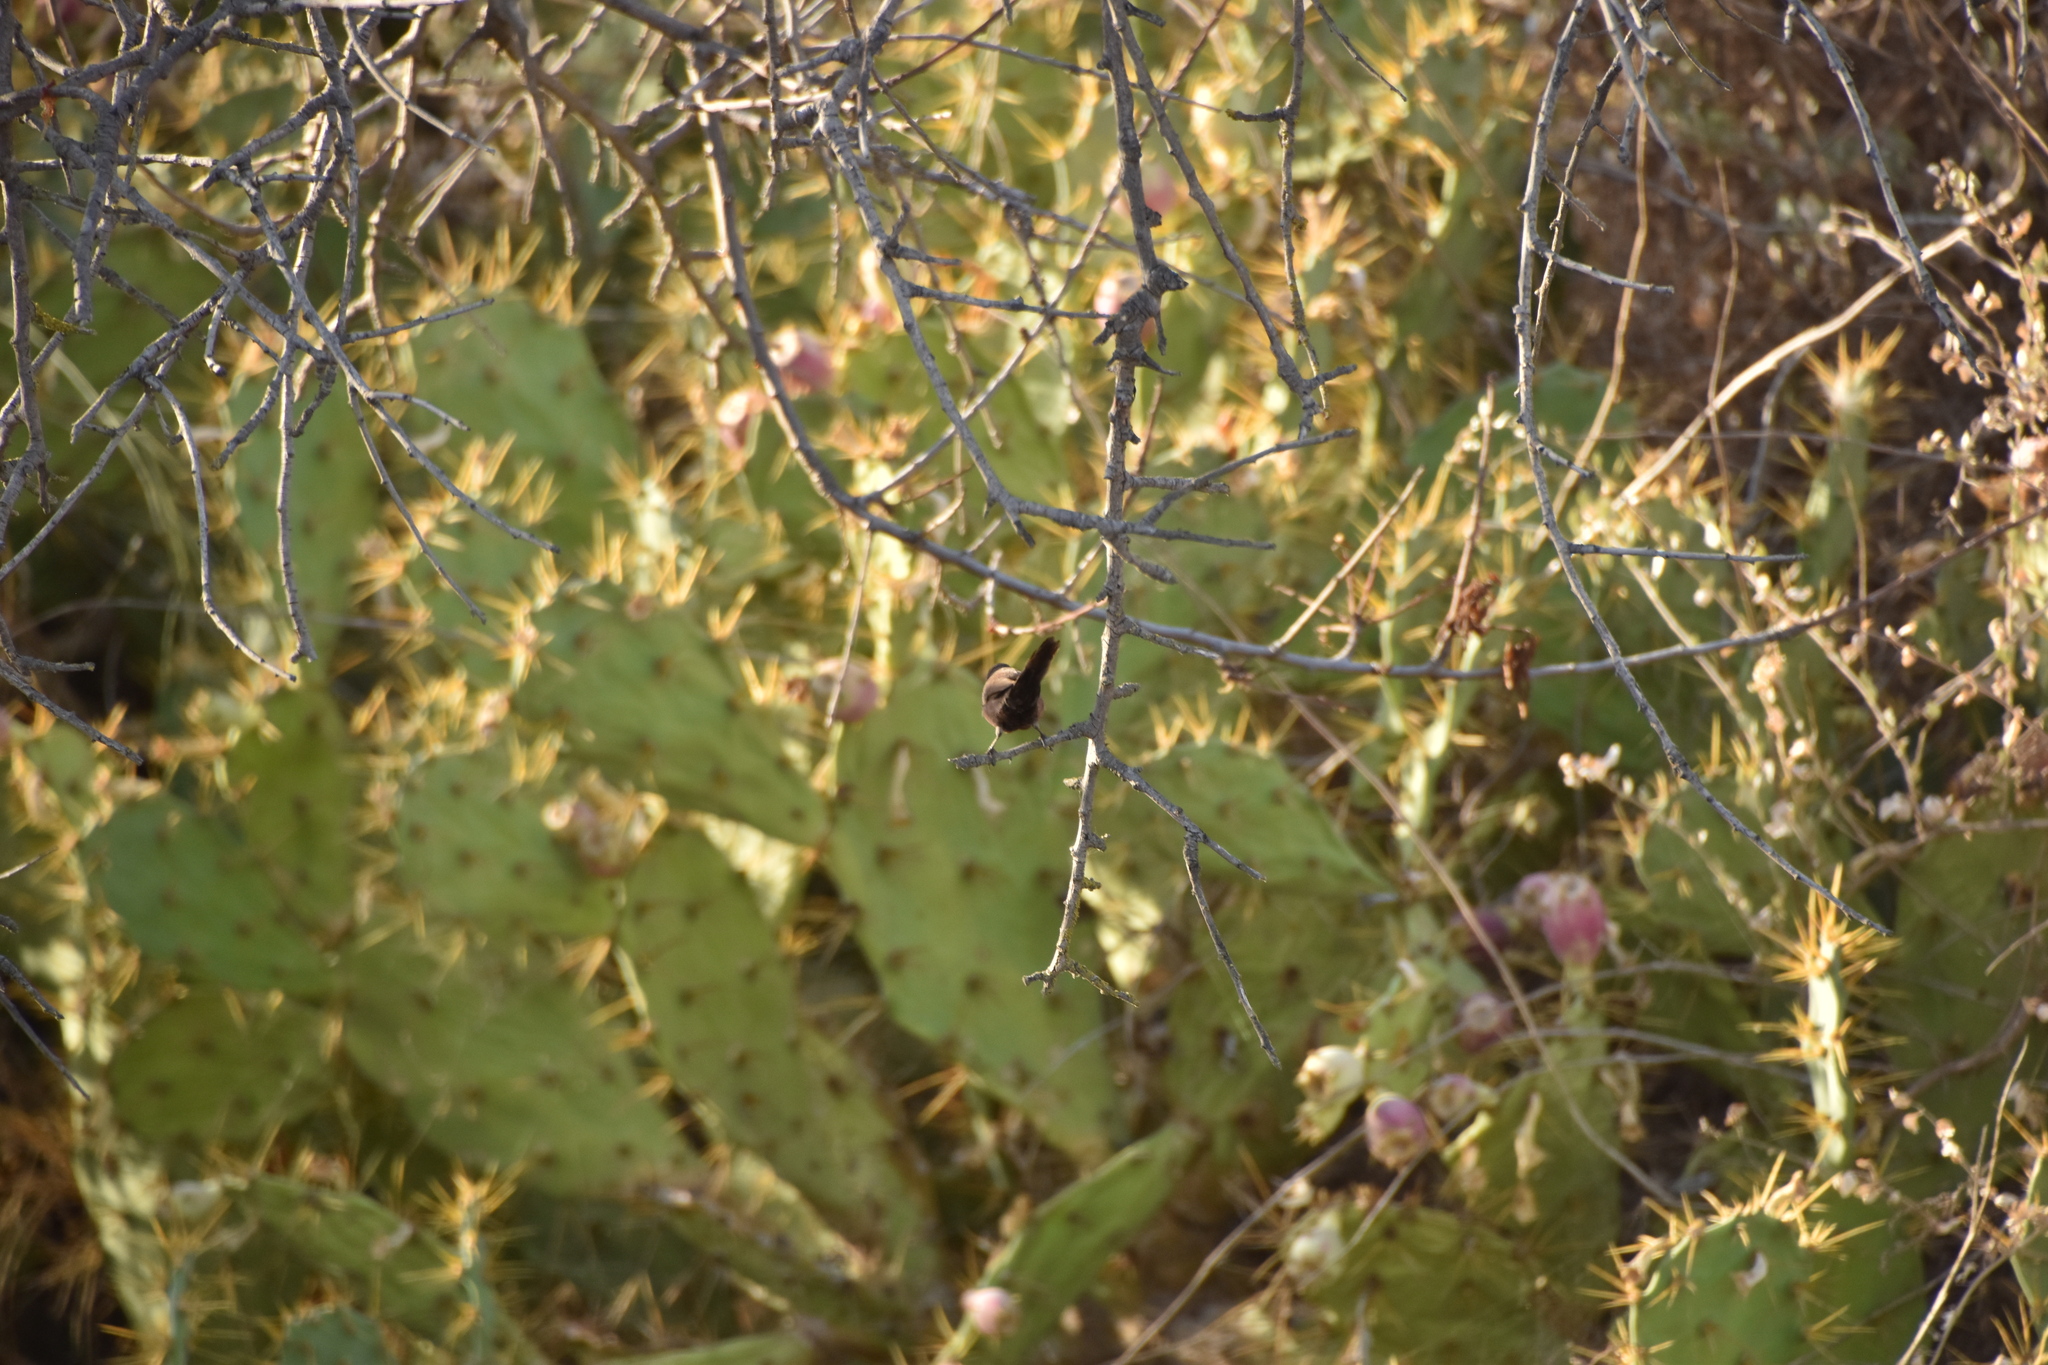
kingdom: Animalia
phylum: Chordata
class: Aves
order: Passeriformes
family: Estrildidae
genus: Estrilda
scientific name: Estrilda astrild
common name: Common waxbill
